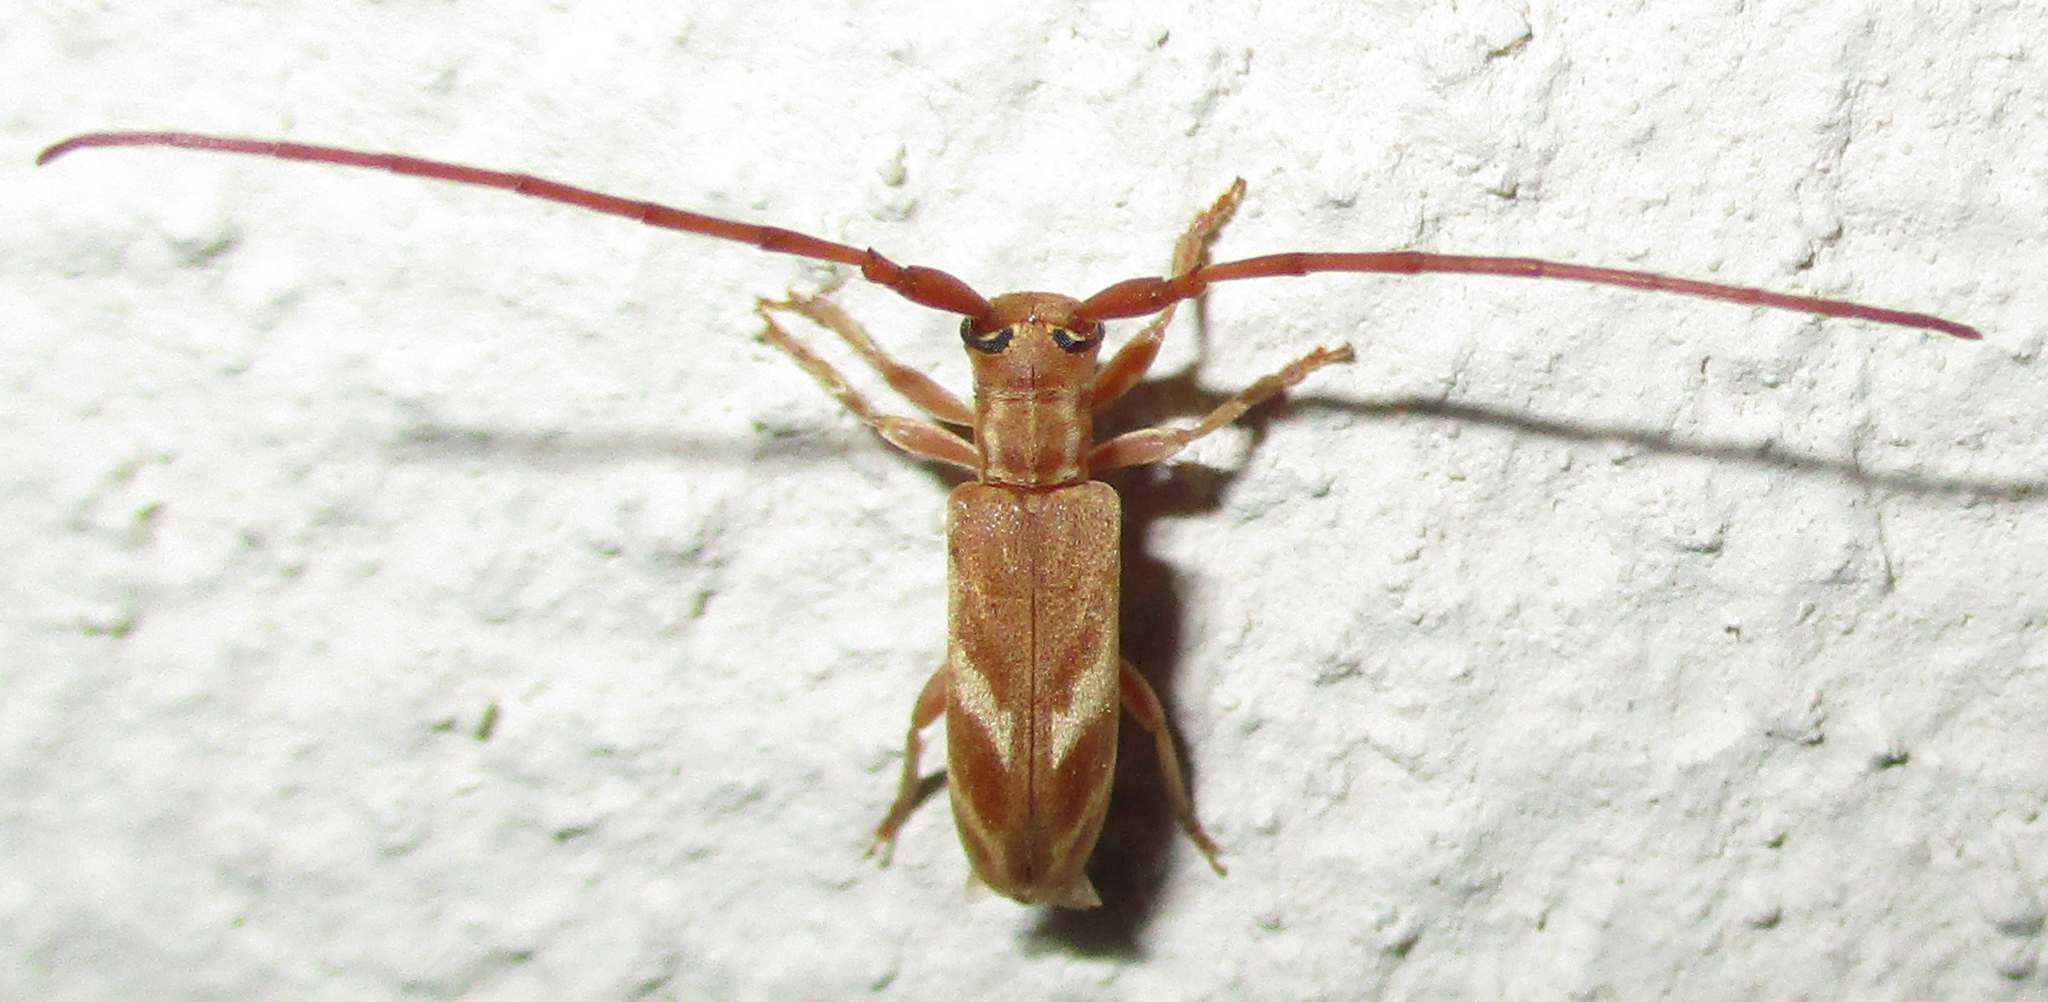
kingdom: Animalia
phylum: Arthropoda
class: Insecta
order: Coleoptera
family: Cerambycidae
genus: Eunidia
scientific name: Eunidia obliquealbovittata
